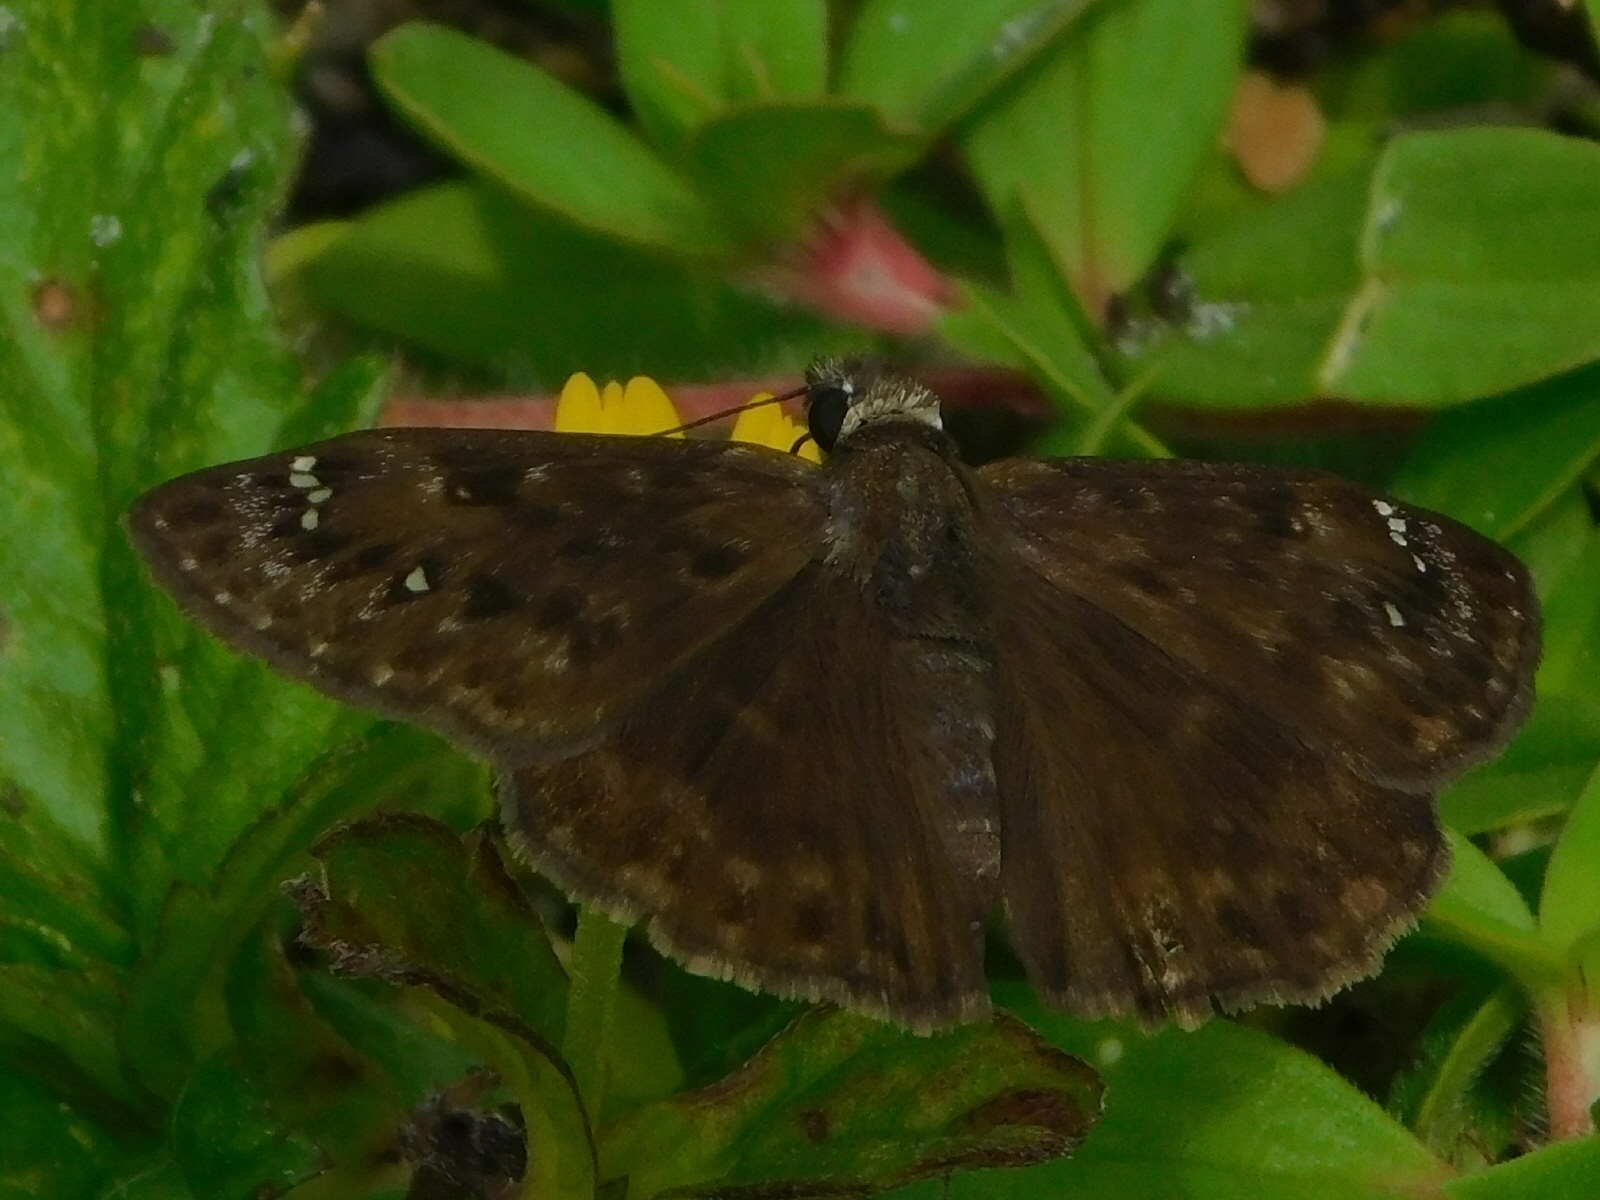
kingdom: Animalia
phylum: Arthropoda
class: Insecta
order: Lepidoptera
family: Hesperiidae
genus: Erynnis
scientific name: Erynnis horatius
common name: Horace's duskywing
